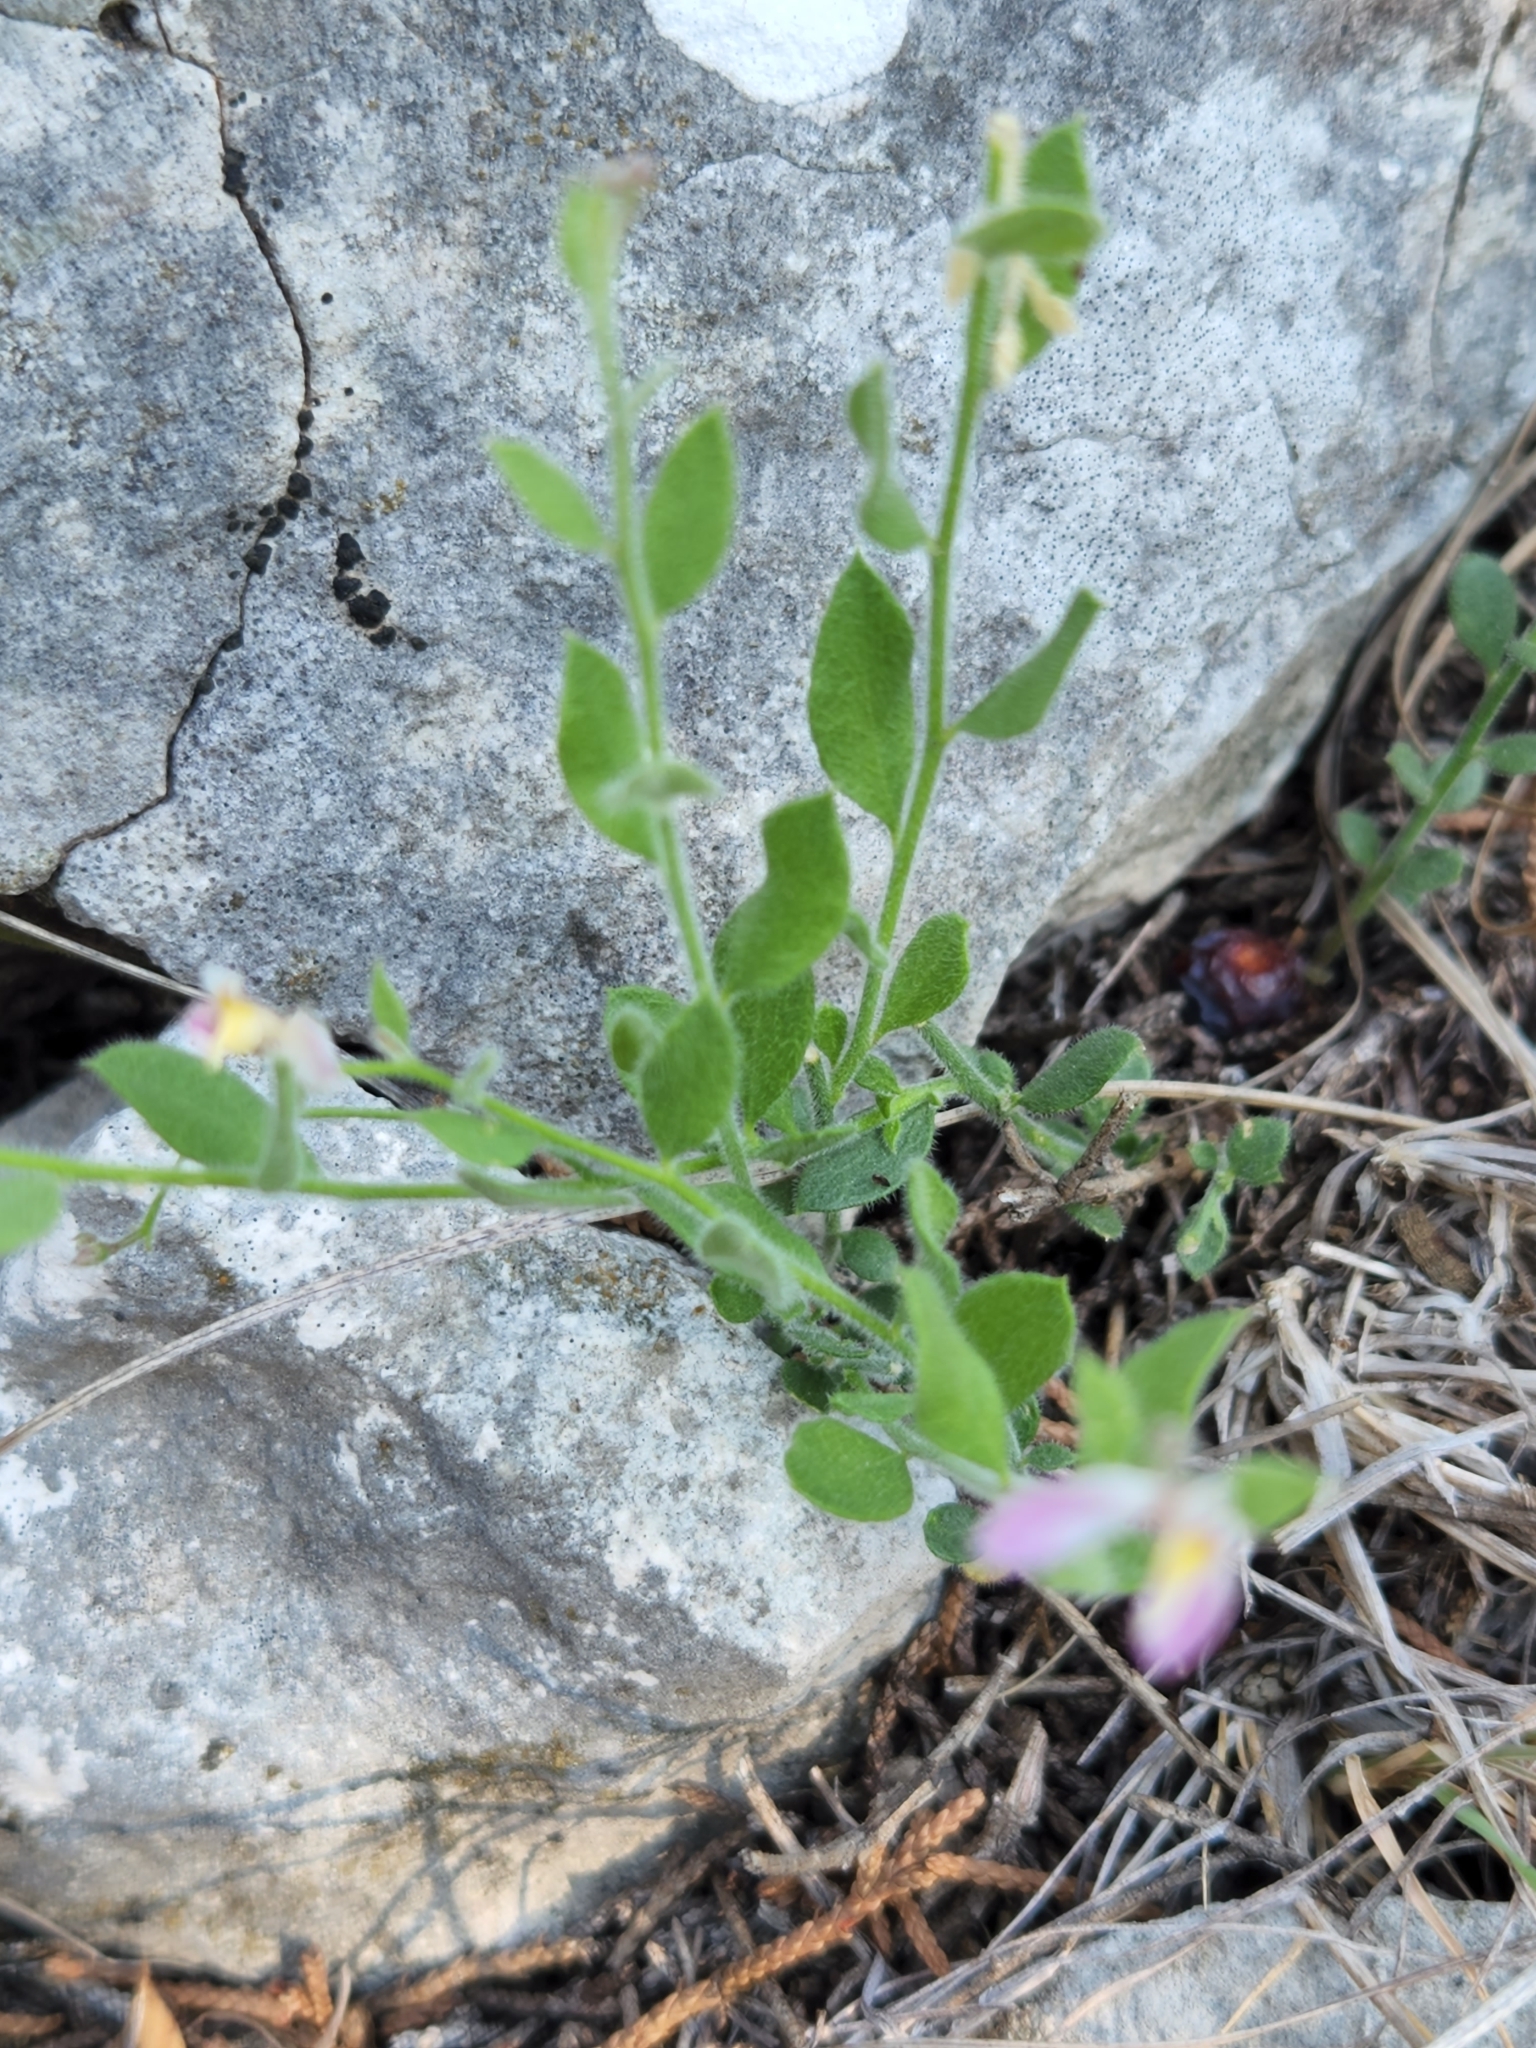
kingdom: Plantae
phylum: Tracheophyta
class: Magnoliopsida
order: Fabales
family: Polygalaceae
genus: Rhinotropis
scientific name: Rhinotropis lindheimeri
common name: Shrubby milkwort
